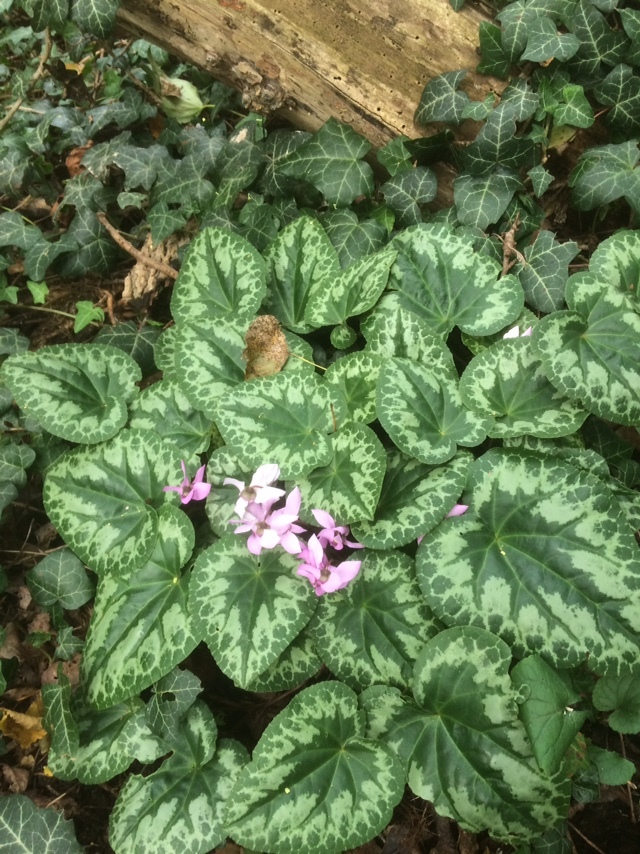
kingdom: Plantae
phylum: Tracheophyta
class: Magnoliopsida
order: Ericales
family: Primulaceae
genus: Cyclamen
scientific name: Cyclamen purpurascens
